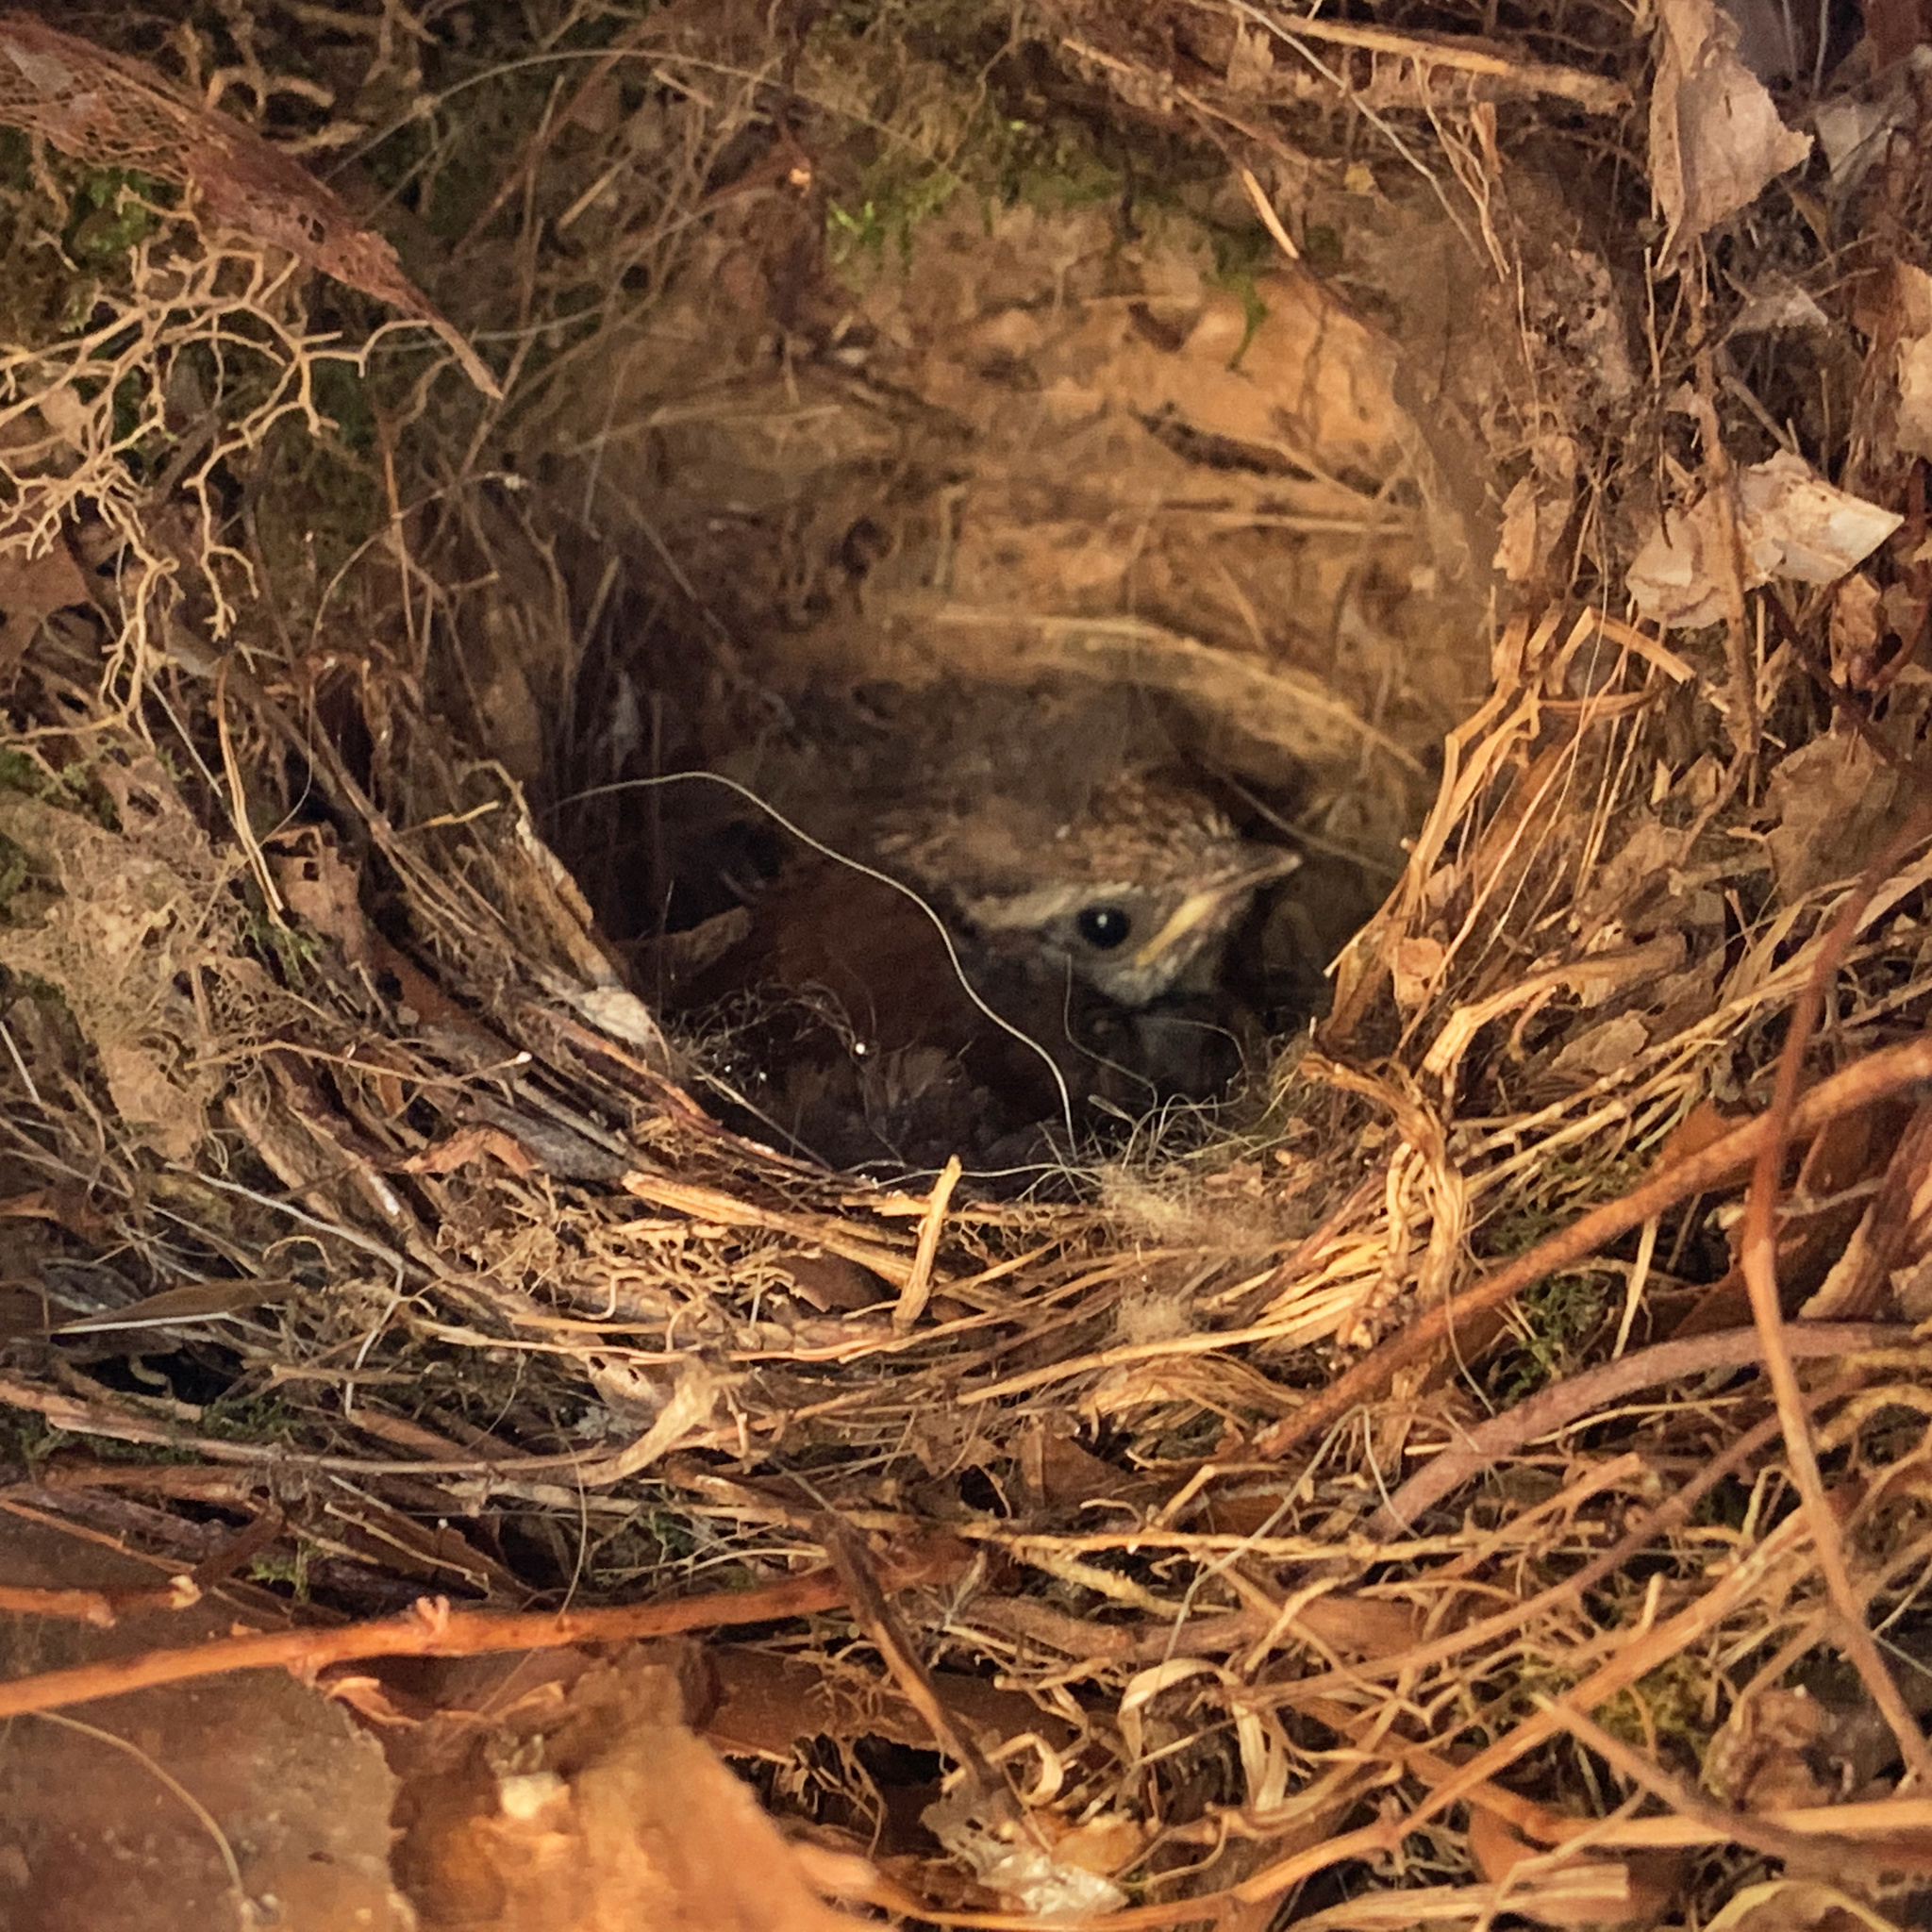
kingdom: Animalia
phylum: Chordata
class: Aves
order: Passeriformes
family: Troglodytidae
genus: Thryothorus
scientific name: Thryothorus ludovicianus
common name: Carolina wren
